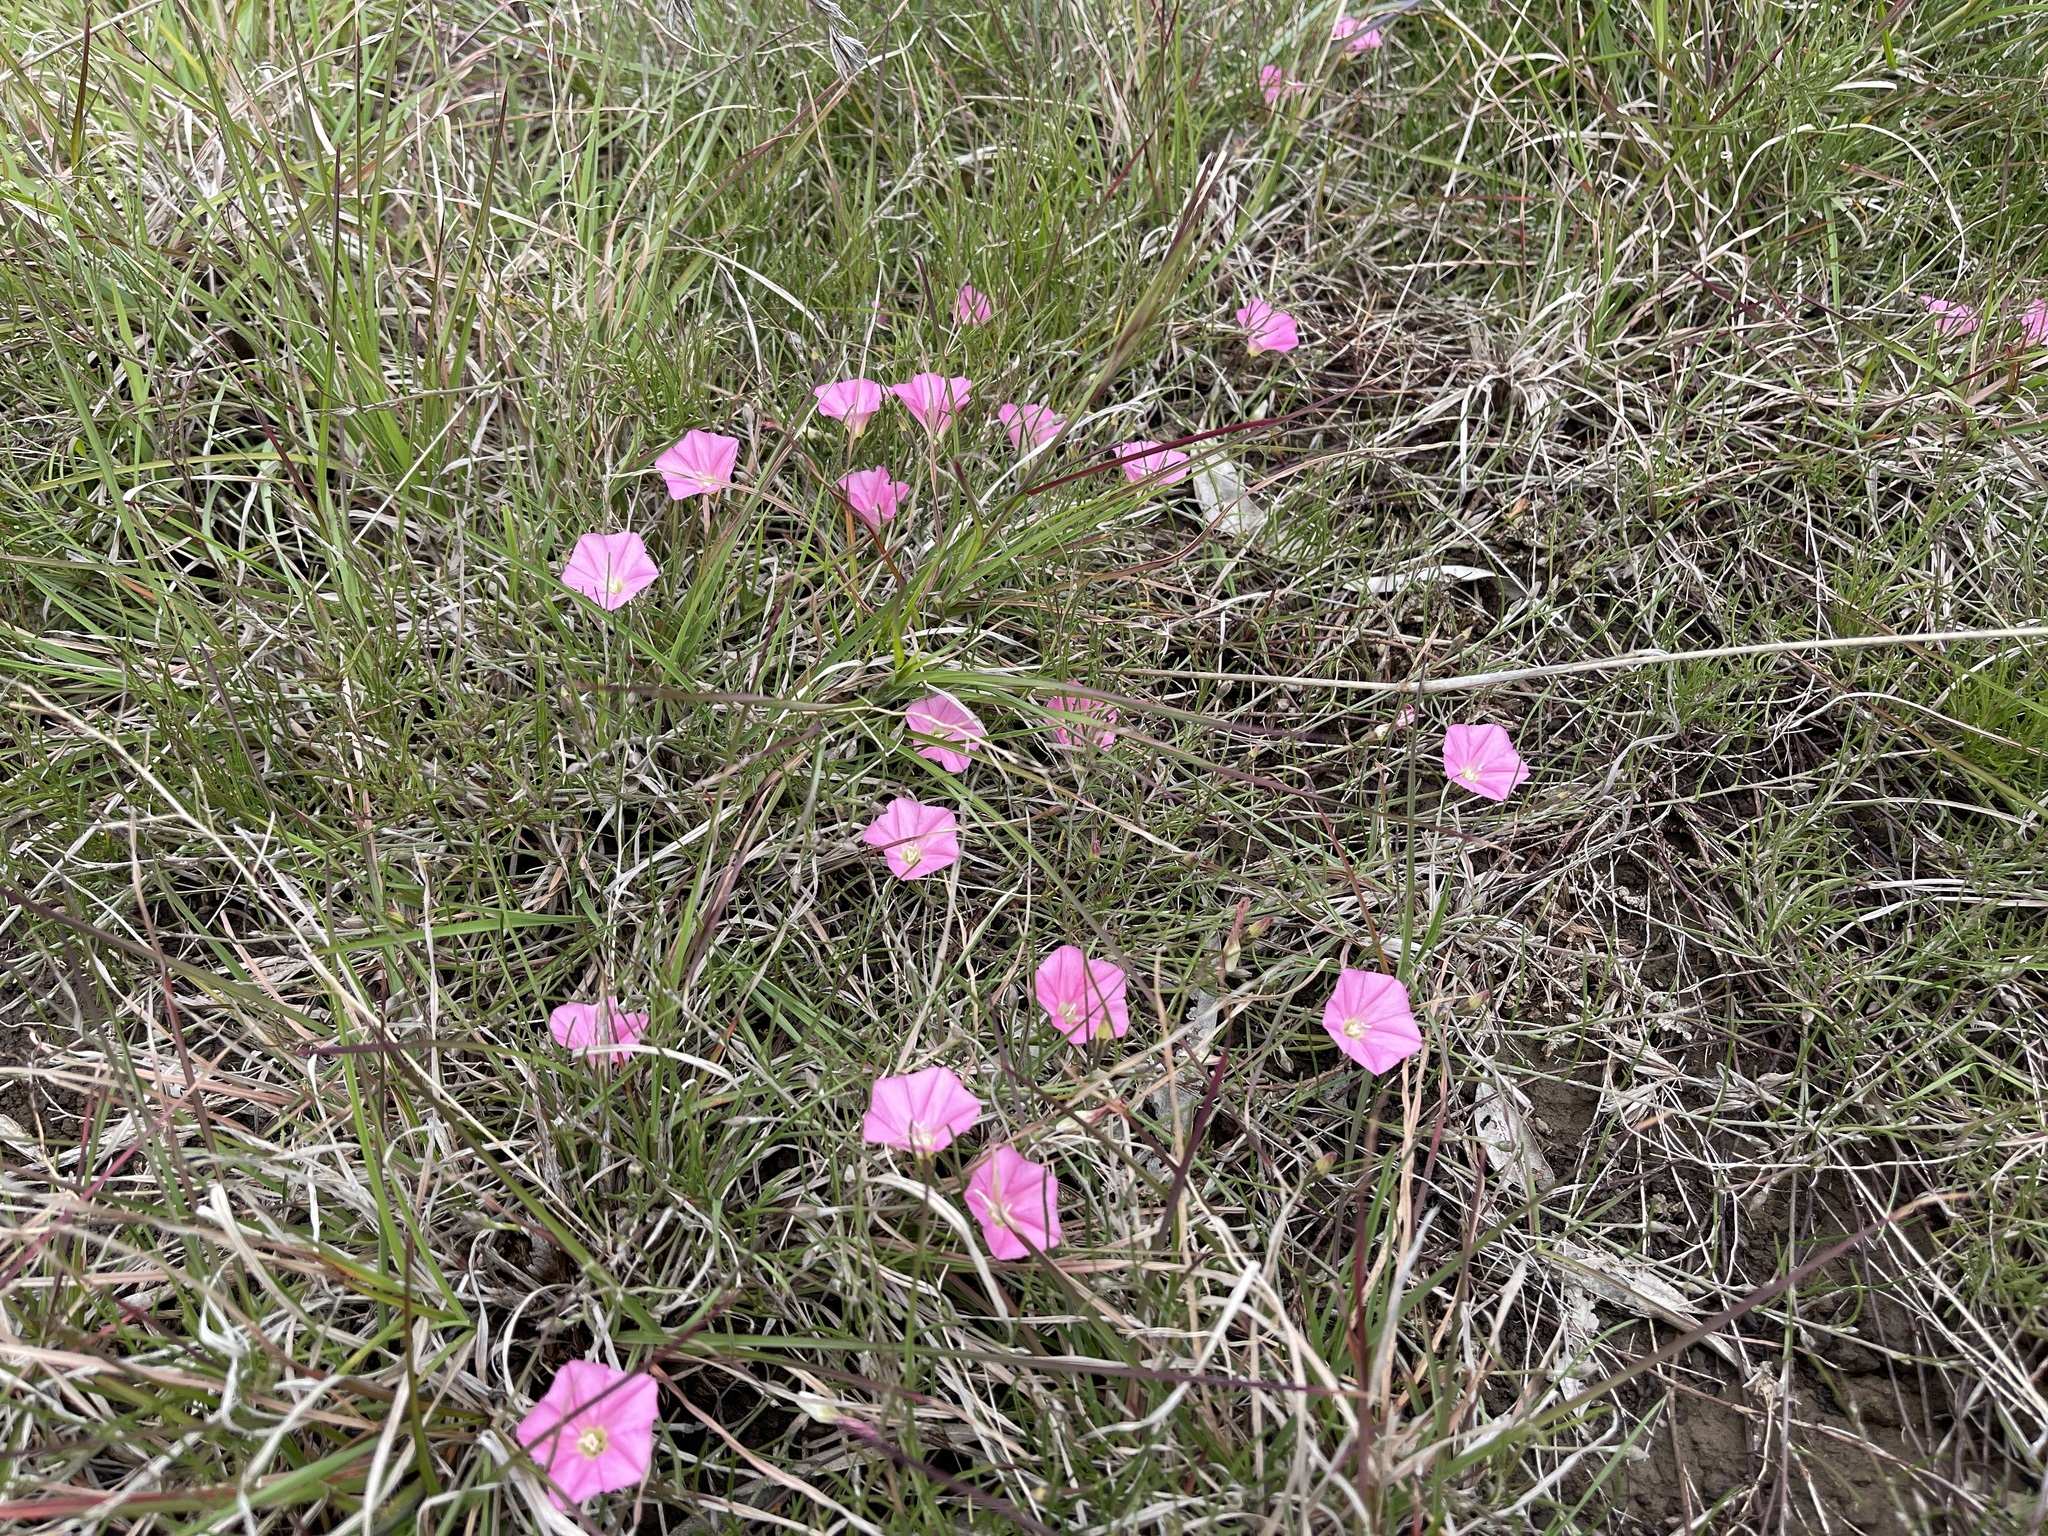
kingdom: Plantae
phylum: Tracheophyta
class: Magnoliopsida
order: Solanales
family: Convolvulaceae
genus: Convolvulus
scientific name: Convolvulus angustissimus
